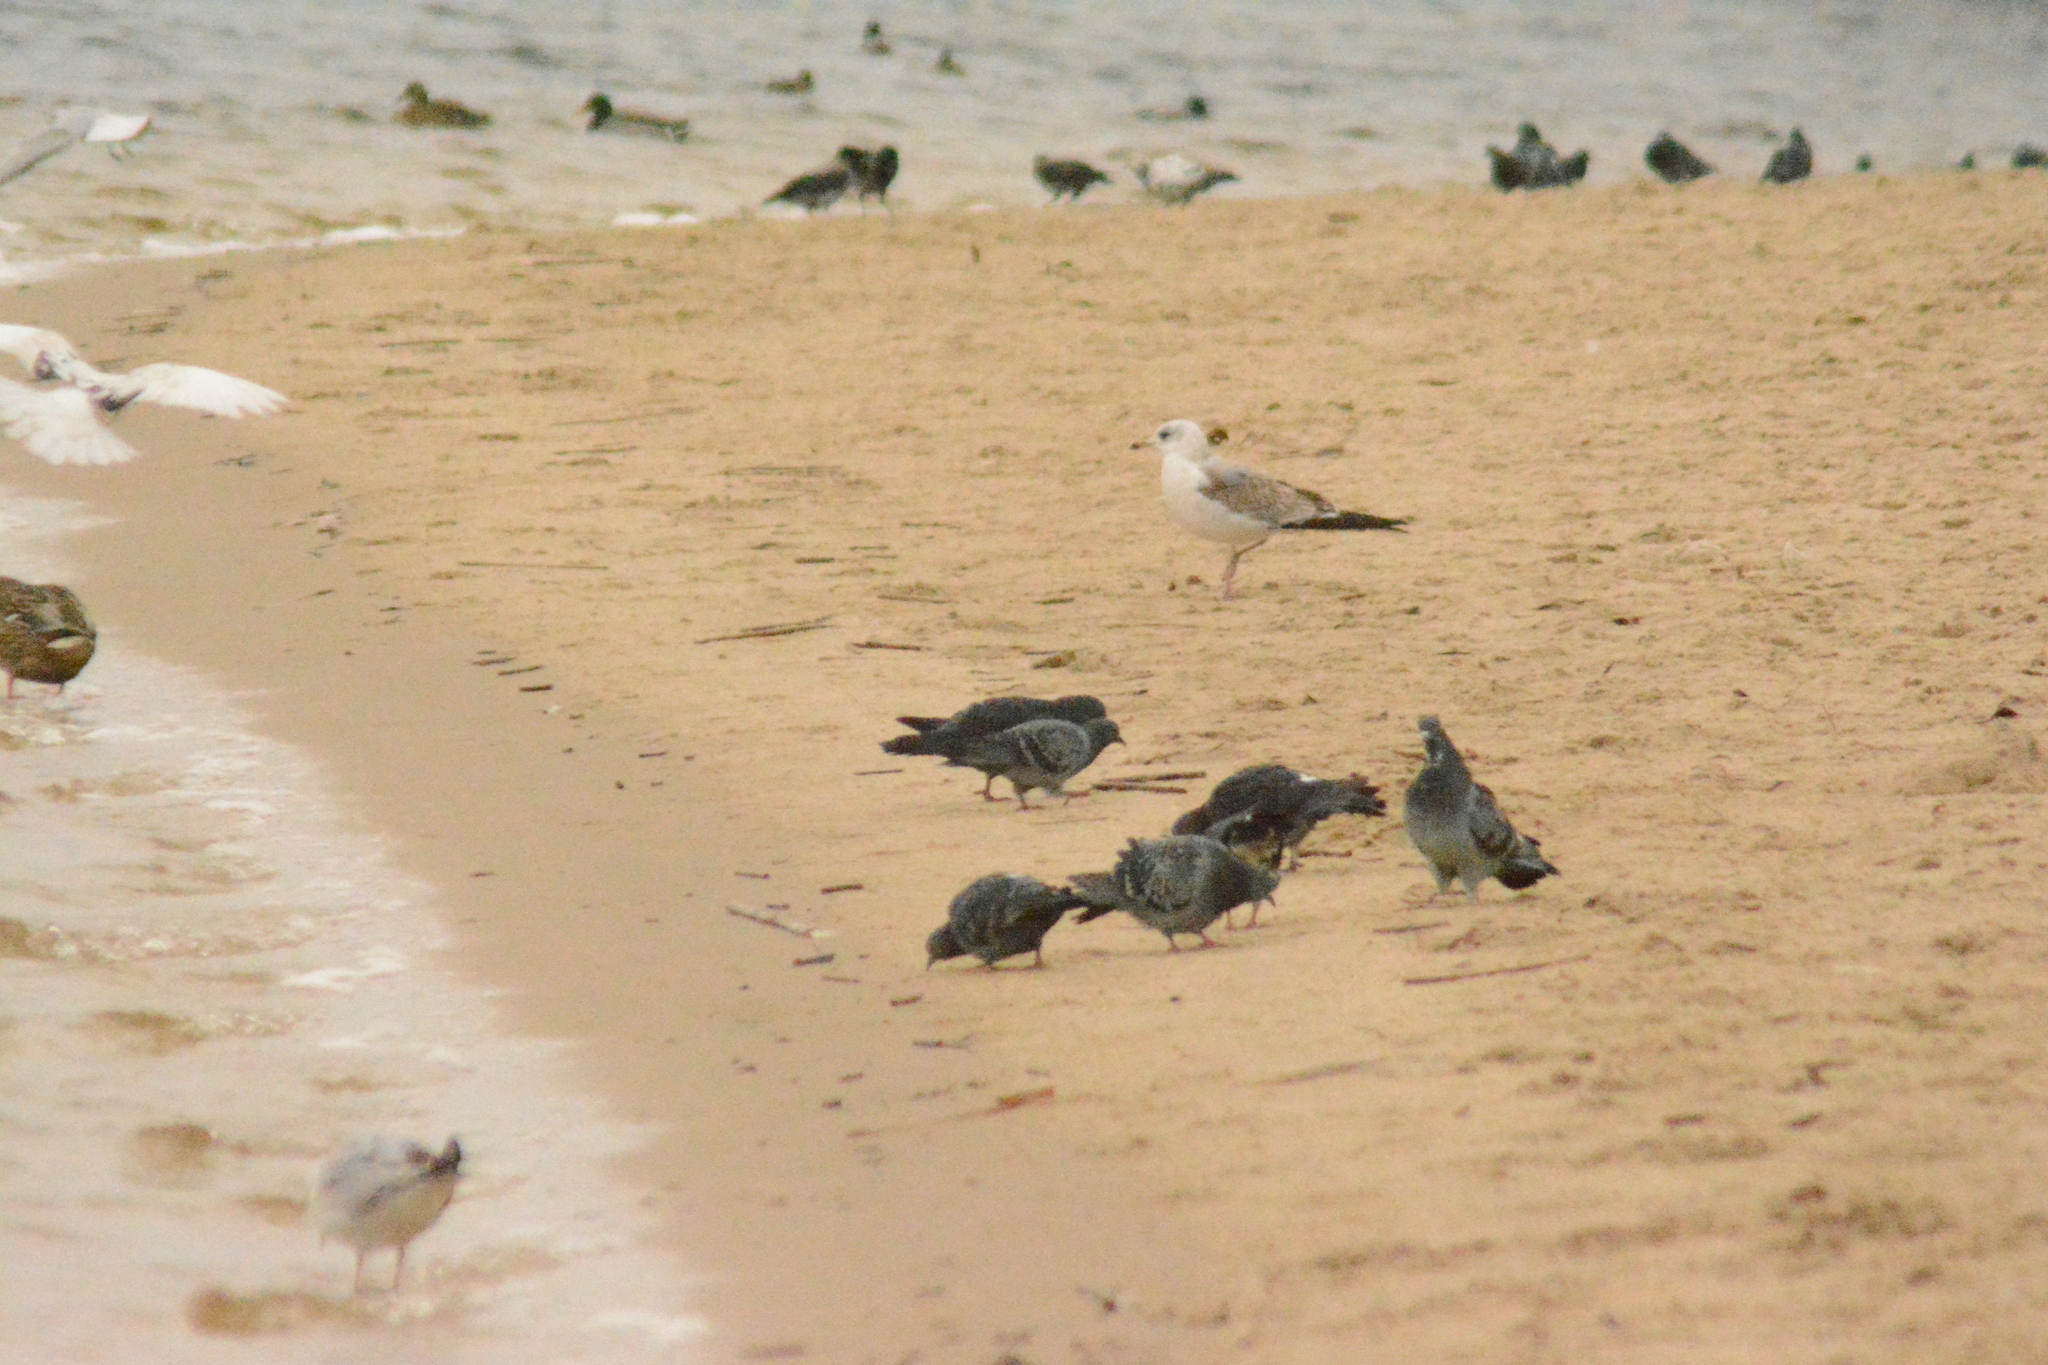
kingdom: Animalia
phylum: Chordata
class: Aves
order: Charadriiformes
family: Laridae
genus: Larus
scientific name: Larus canus
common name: Mew gull
